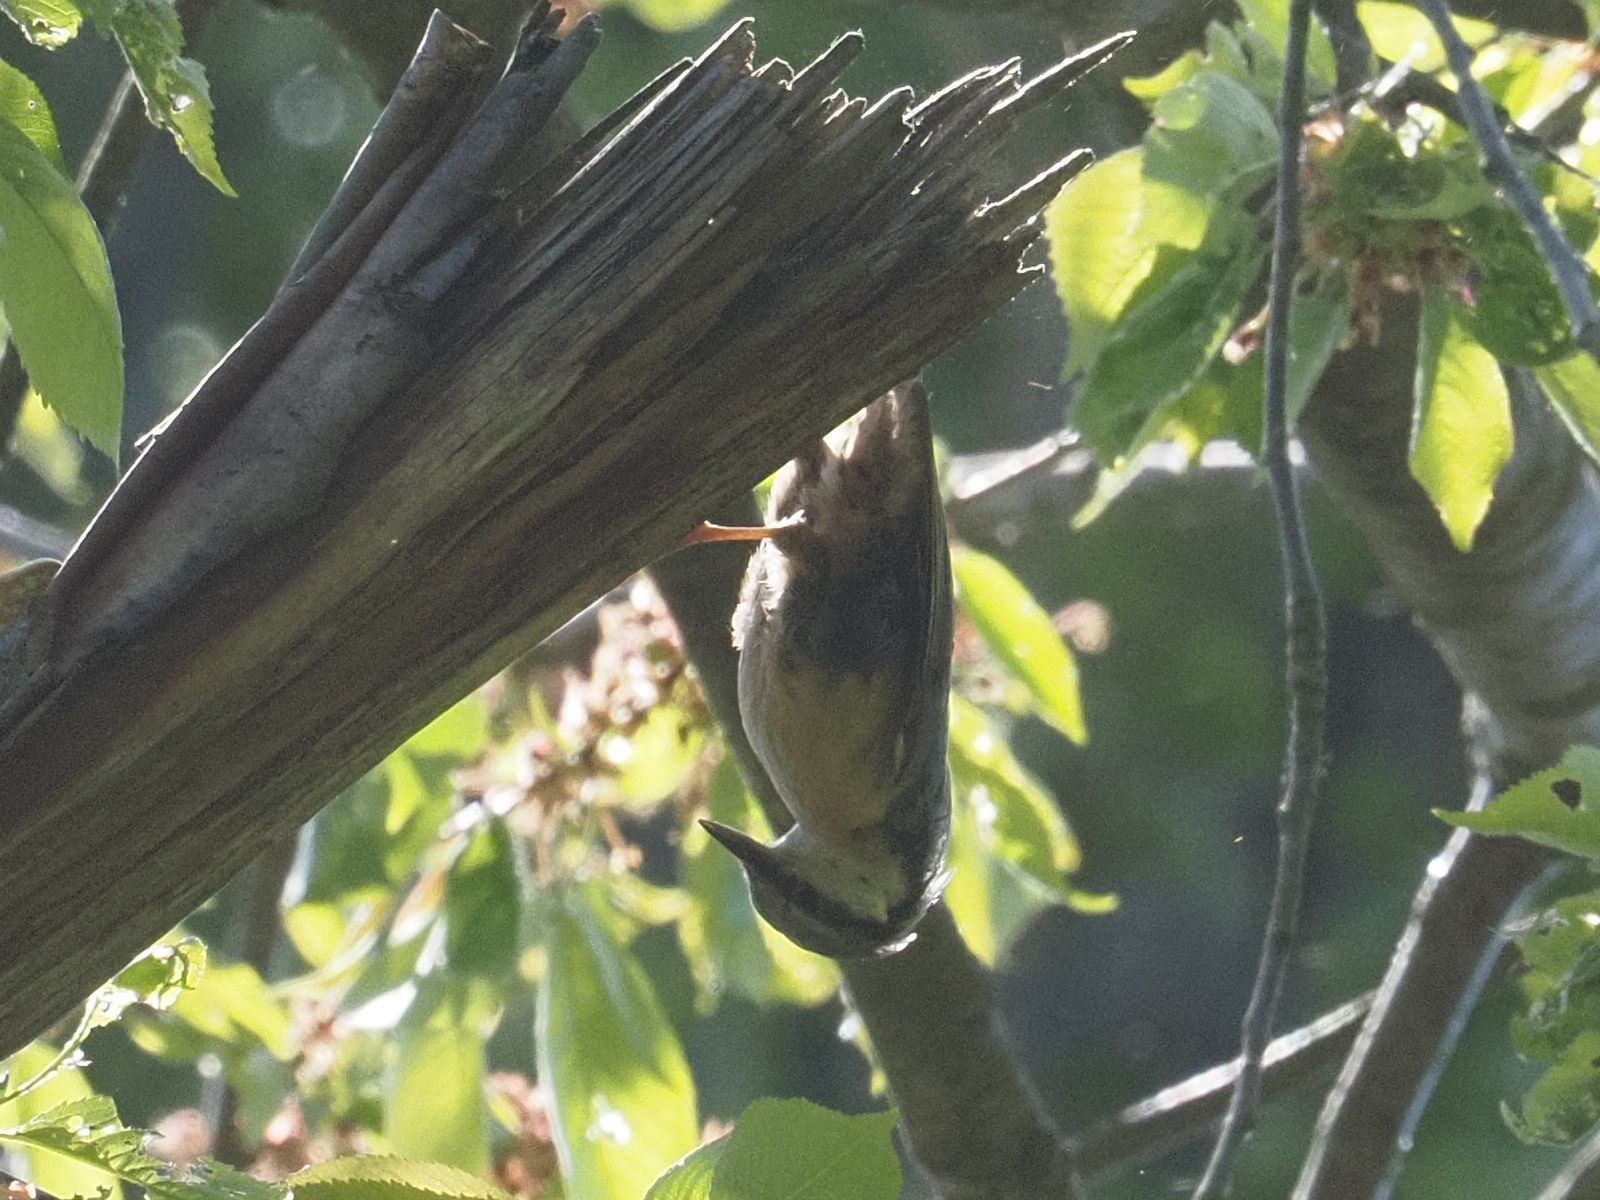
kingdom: Animalia
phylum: Chordata
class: Aves
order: Passeriformes
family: Sittidae
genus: Sitta
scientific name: Sitta europaea
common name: Eurasian nuthatch
